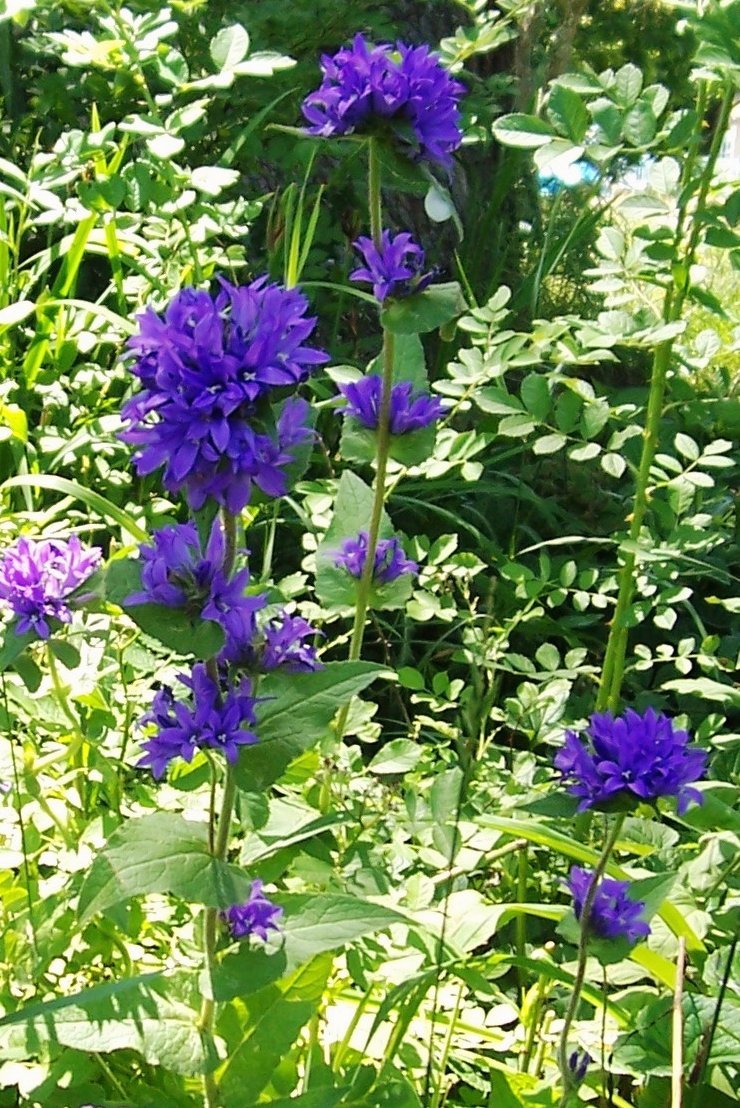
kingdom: Plantae
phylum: Tracheophyta
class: Magnoliopsida
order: Asterales
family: Campanulaceae
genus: Campanula
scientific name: Campanula glomerata
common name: Clustered bellflower
